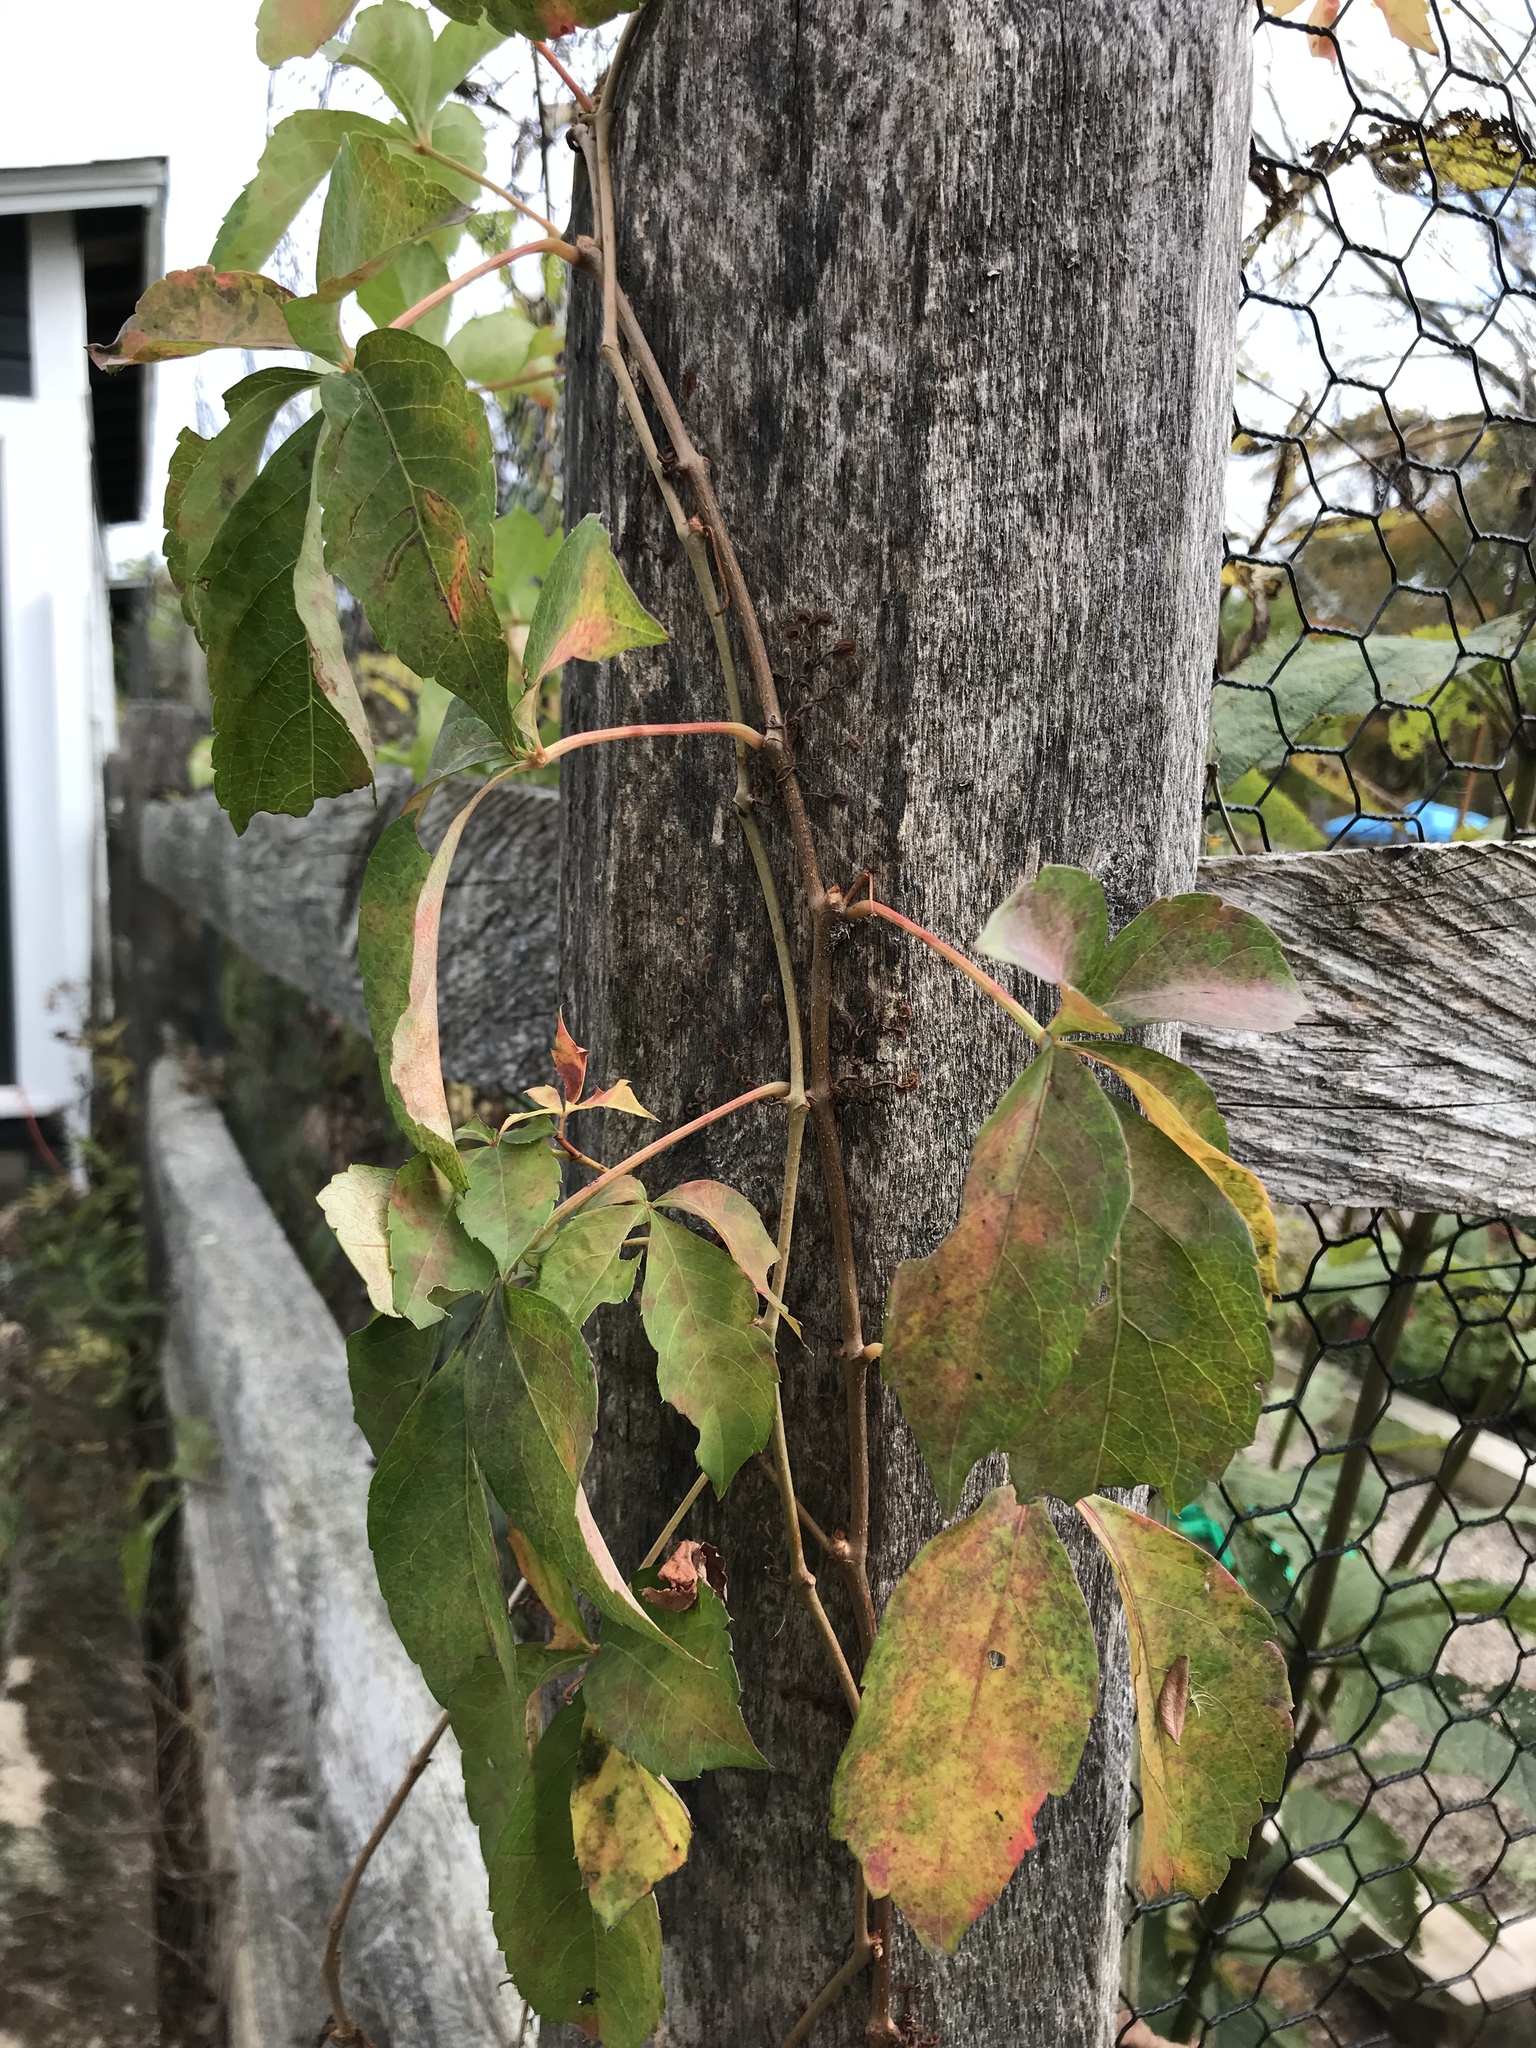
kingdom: Plantae
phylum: Tracheophyta
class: Magnoliopsida
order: Vitales
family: Vitaceae
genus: Parthenocissus
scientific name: Parthenocissus quinquefolia
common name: Virginia-creeper
